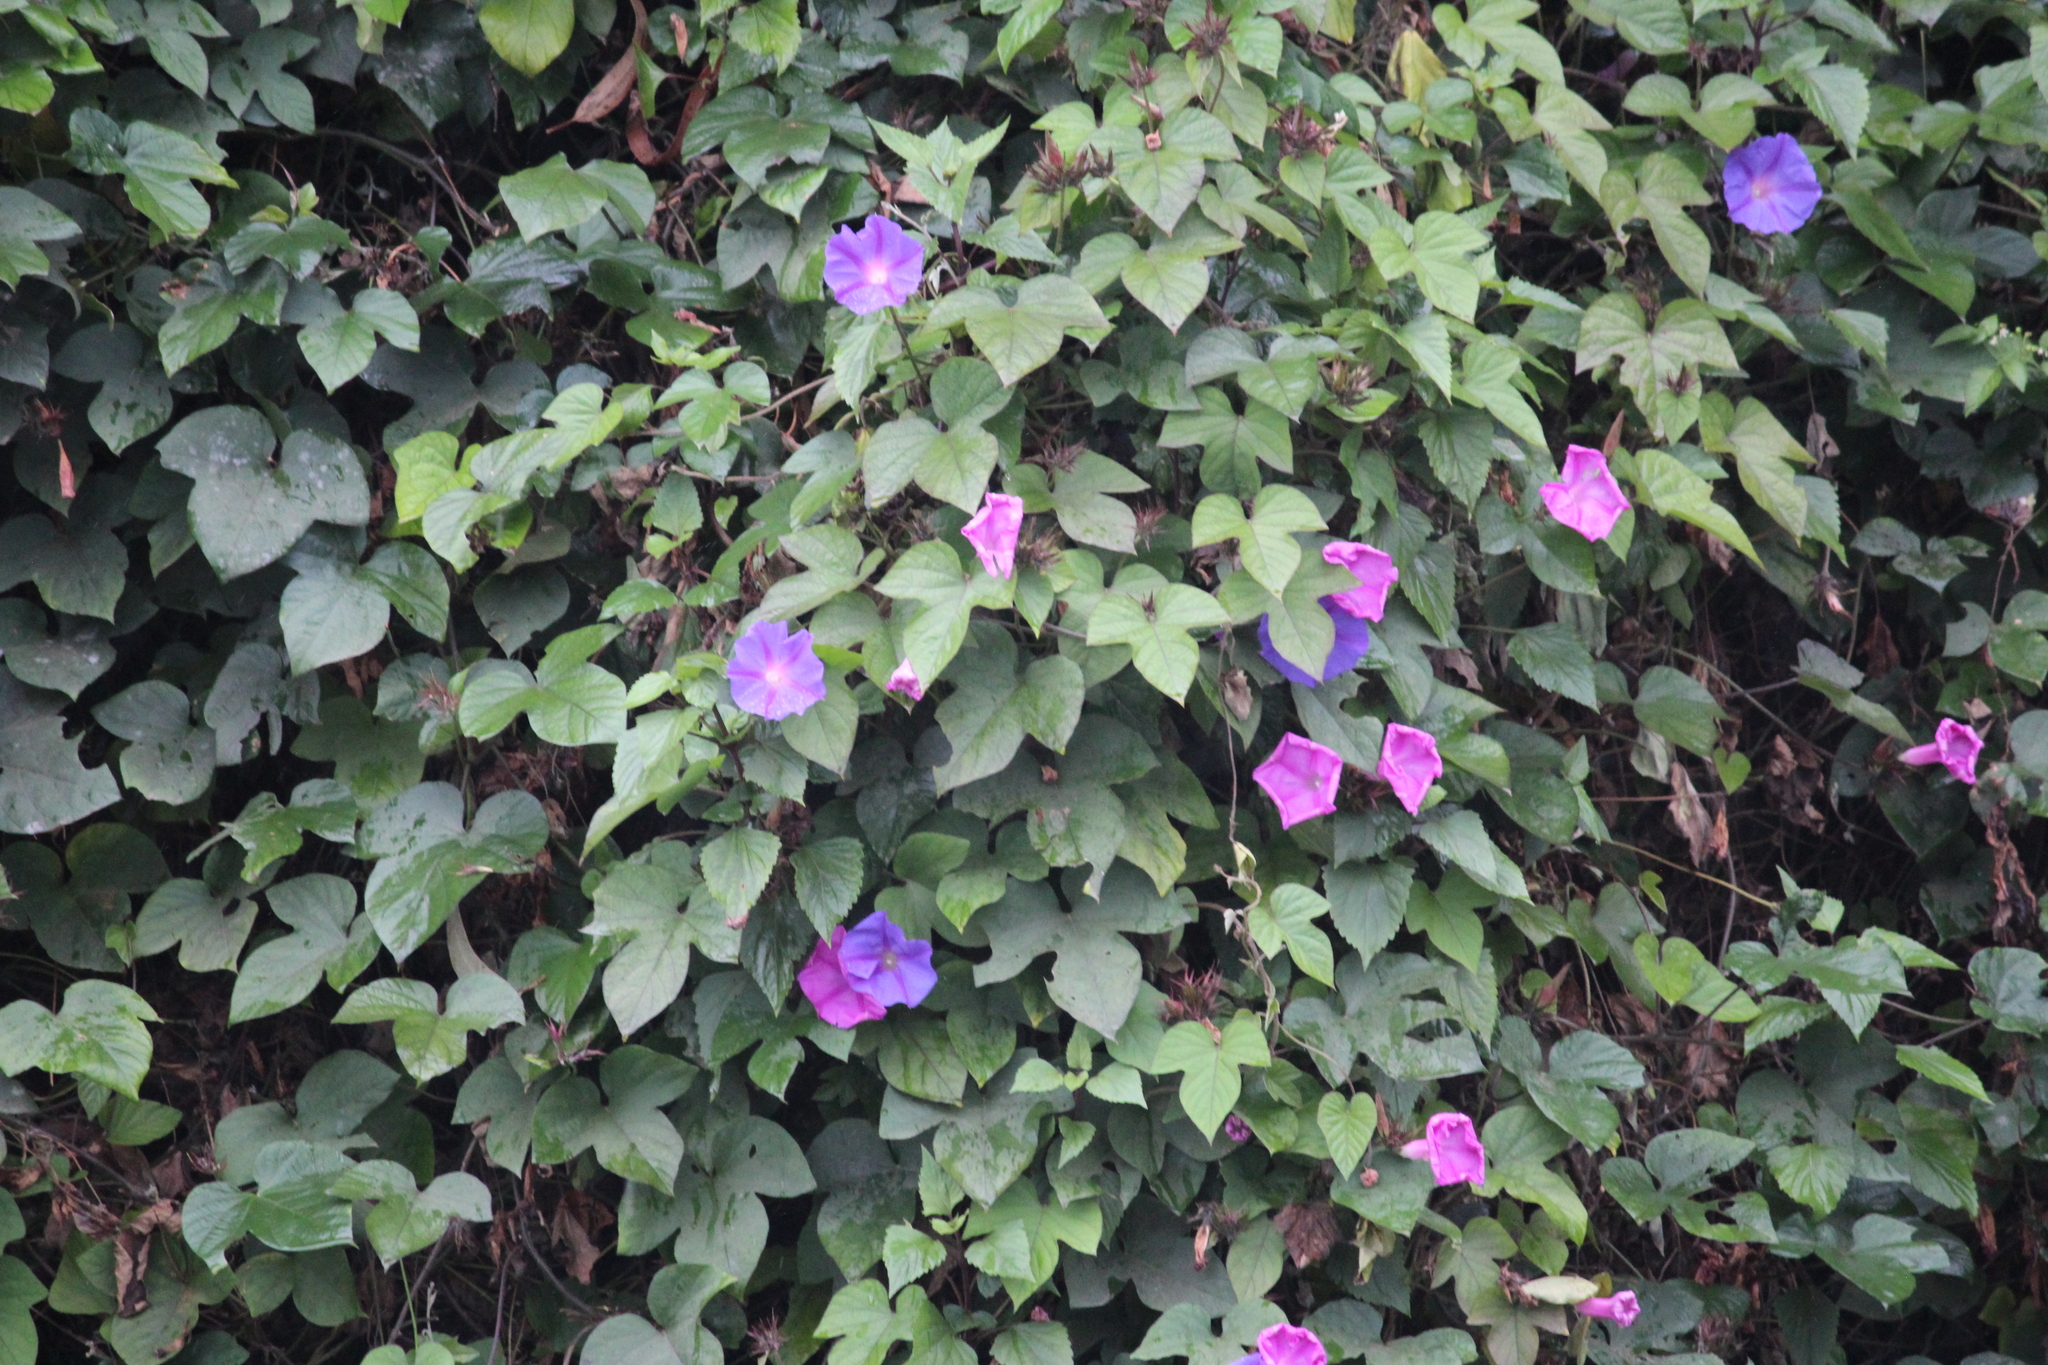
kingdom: Plantae
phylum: Tracheophyta
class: Magnoliopsida
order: Solanales
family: Convolvulaceae
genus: Ipomoea
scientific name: Ipomoea indica
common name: Blue dawnflower
